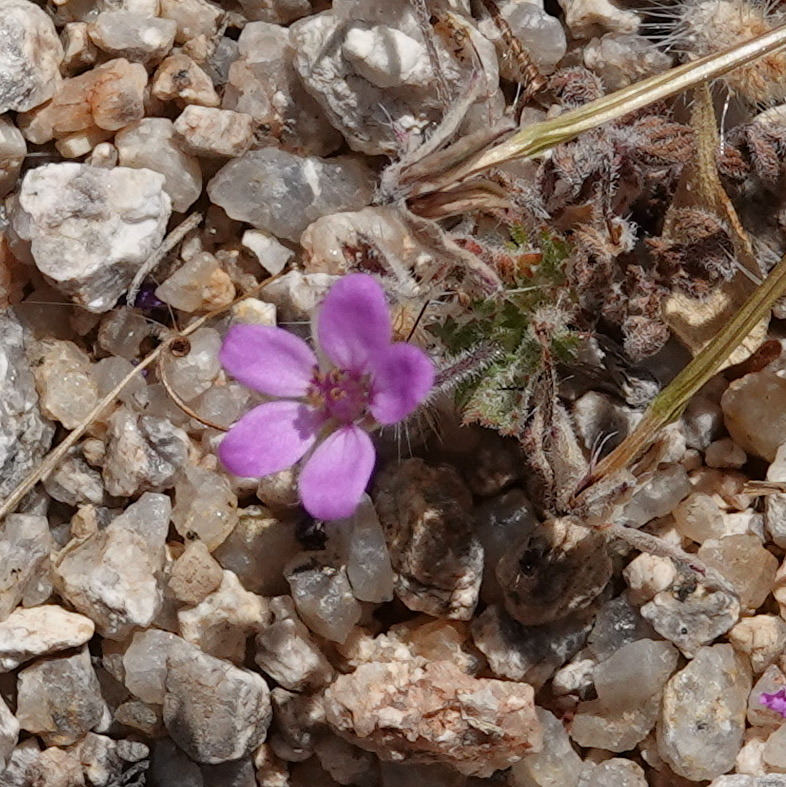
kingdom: Plantae
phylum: Tracheophyta
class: Magnoliopsida
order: Geraniales
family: Geraniaceae
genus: Erodium
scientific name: Erodium cicutarium
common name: Common stork's-bill
